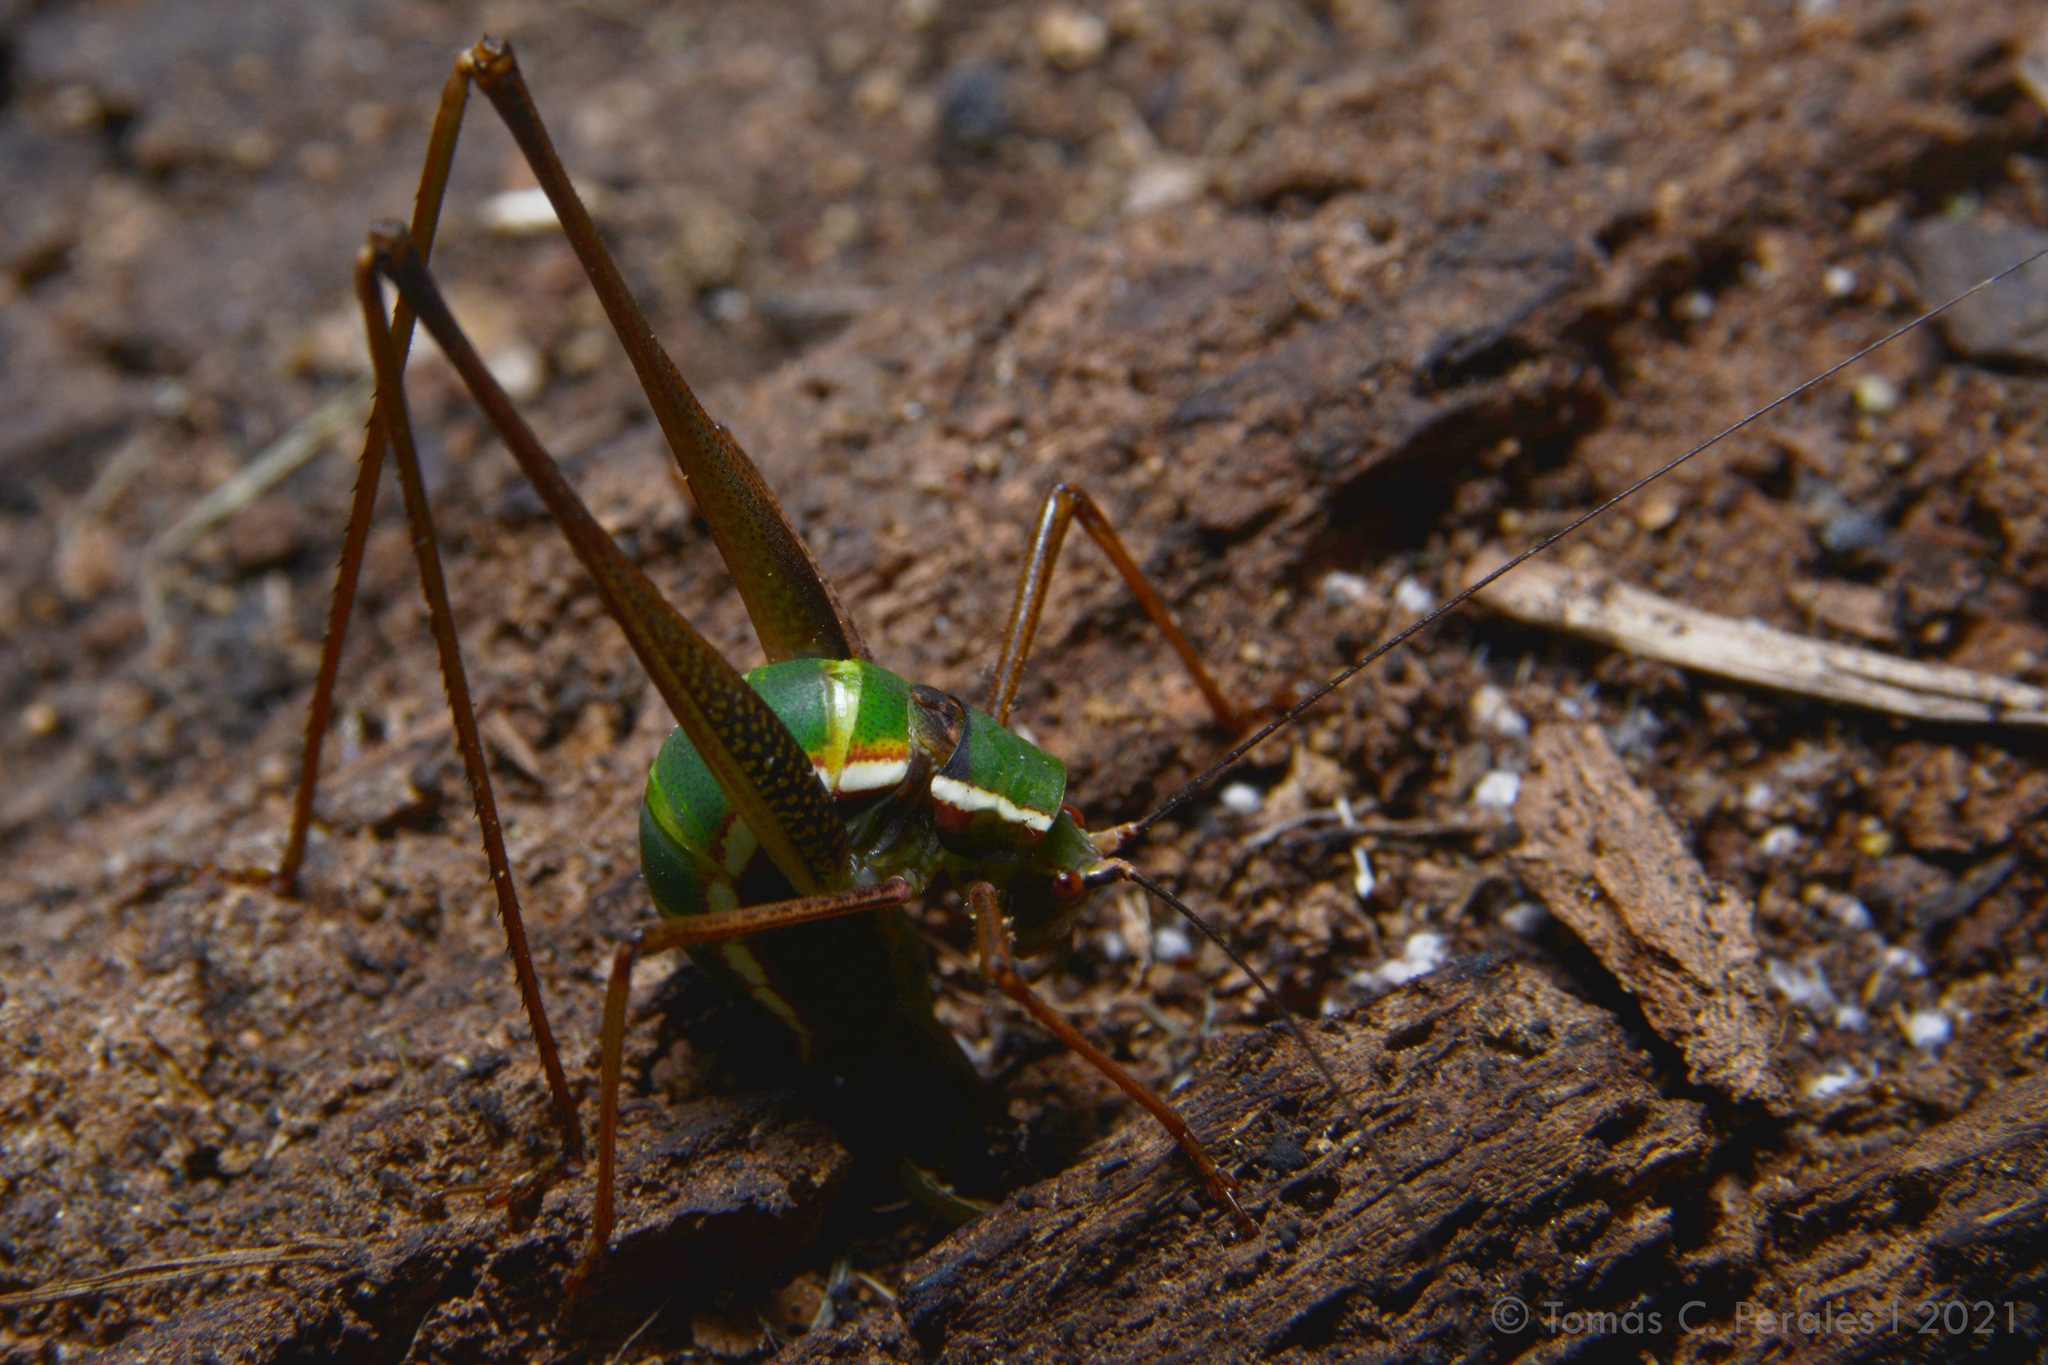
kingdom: Animalia
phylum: Arthropoda
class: Insecta
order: Orthoptera
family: Tettigoniidae
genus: Xenicola
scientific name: Xenicola xukrixi
